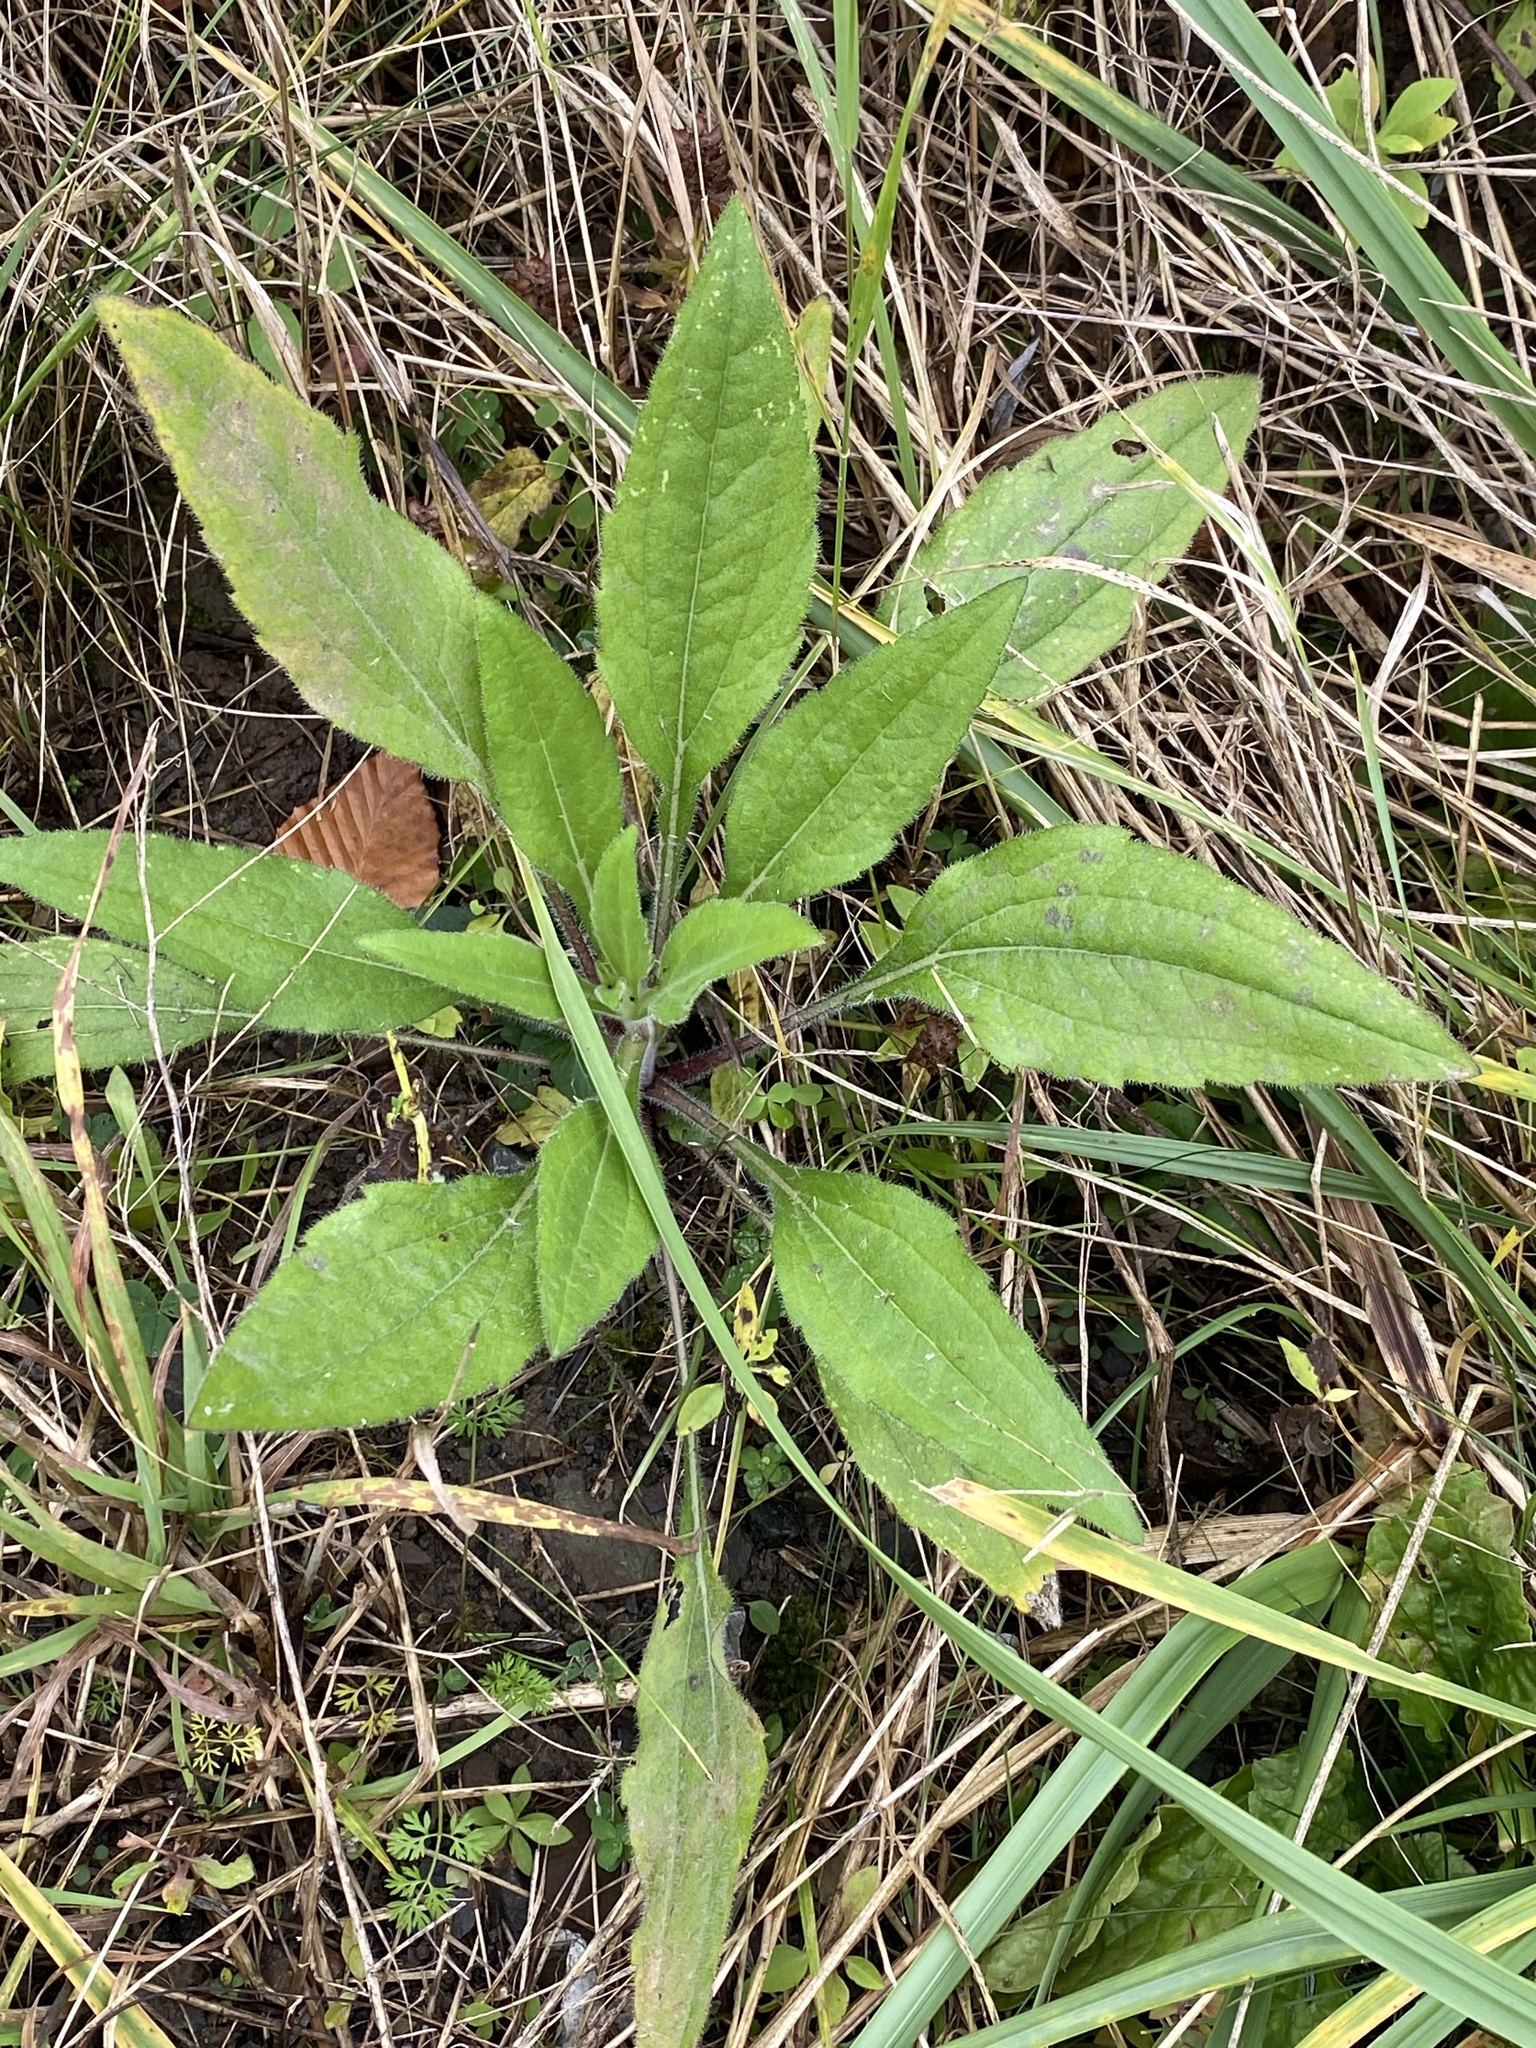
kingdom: Plantae
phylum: Tracheophyta
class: Magnoliopsida
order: Asterales
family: Asteraceae
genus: Rudbeckia
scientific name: Rudbeckia hirta
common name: Black-eyed-susan
